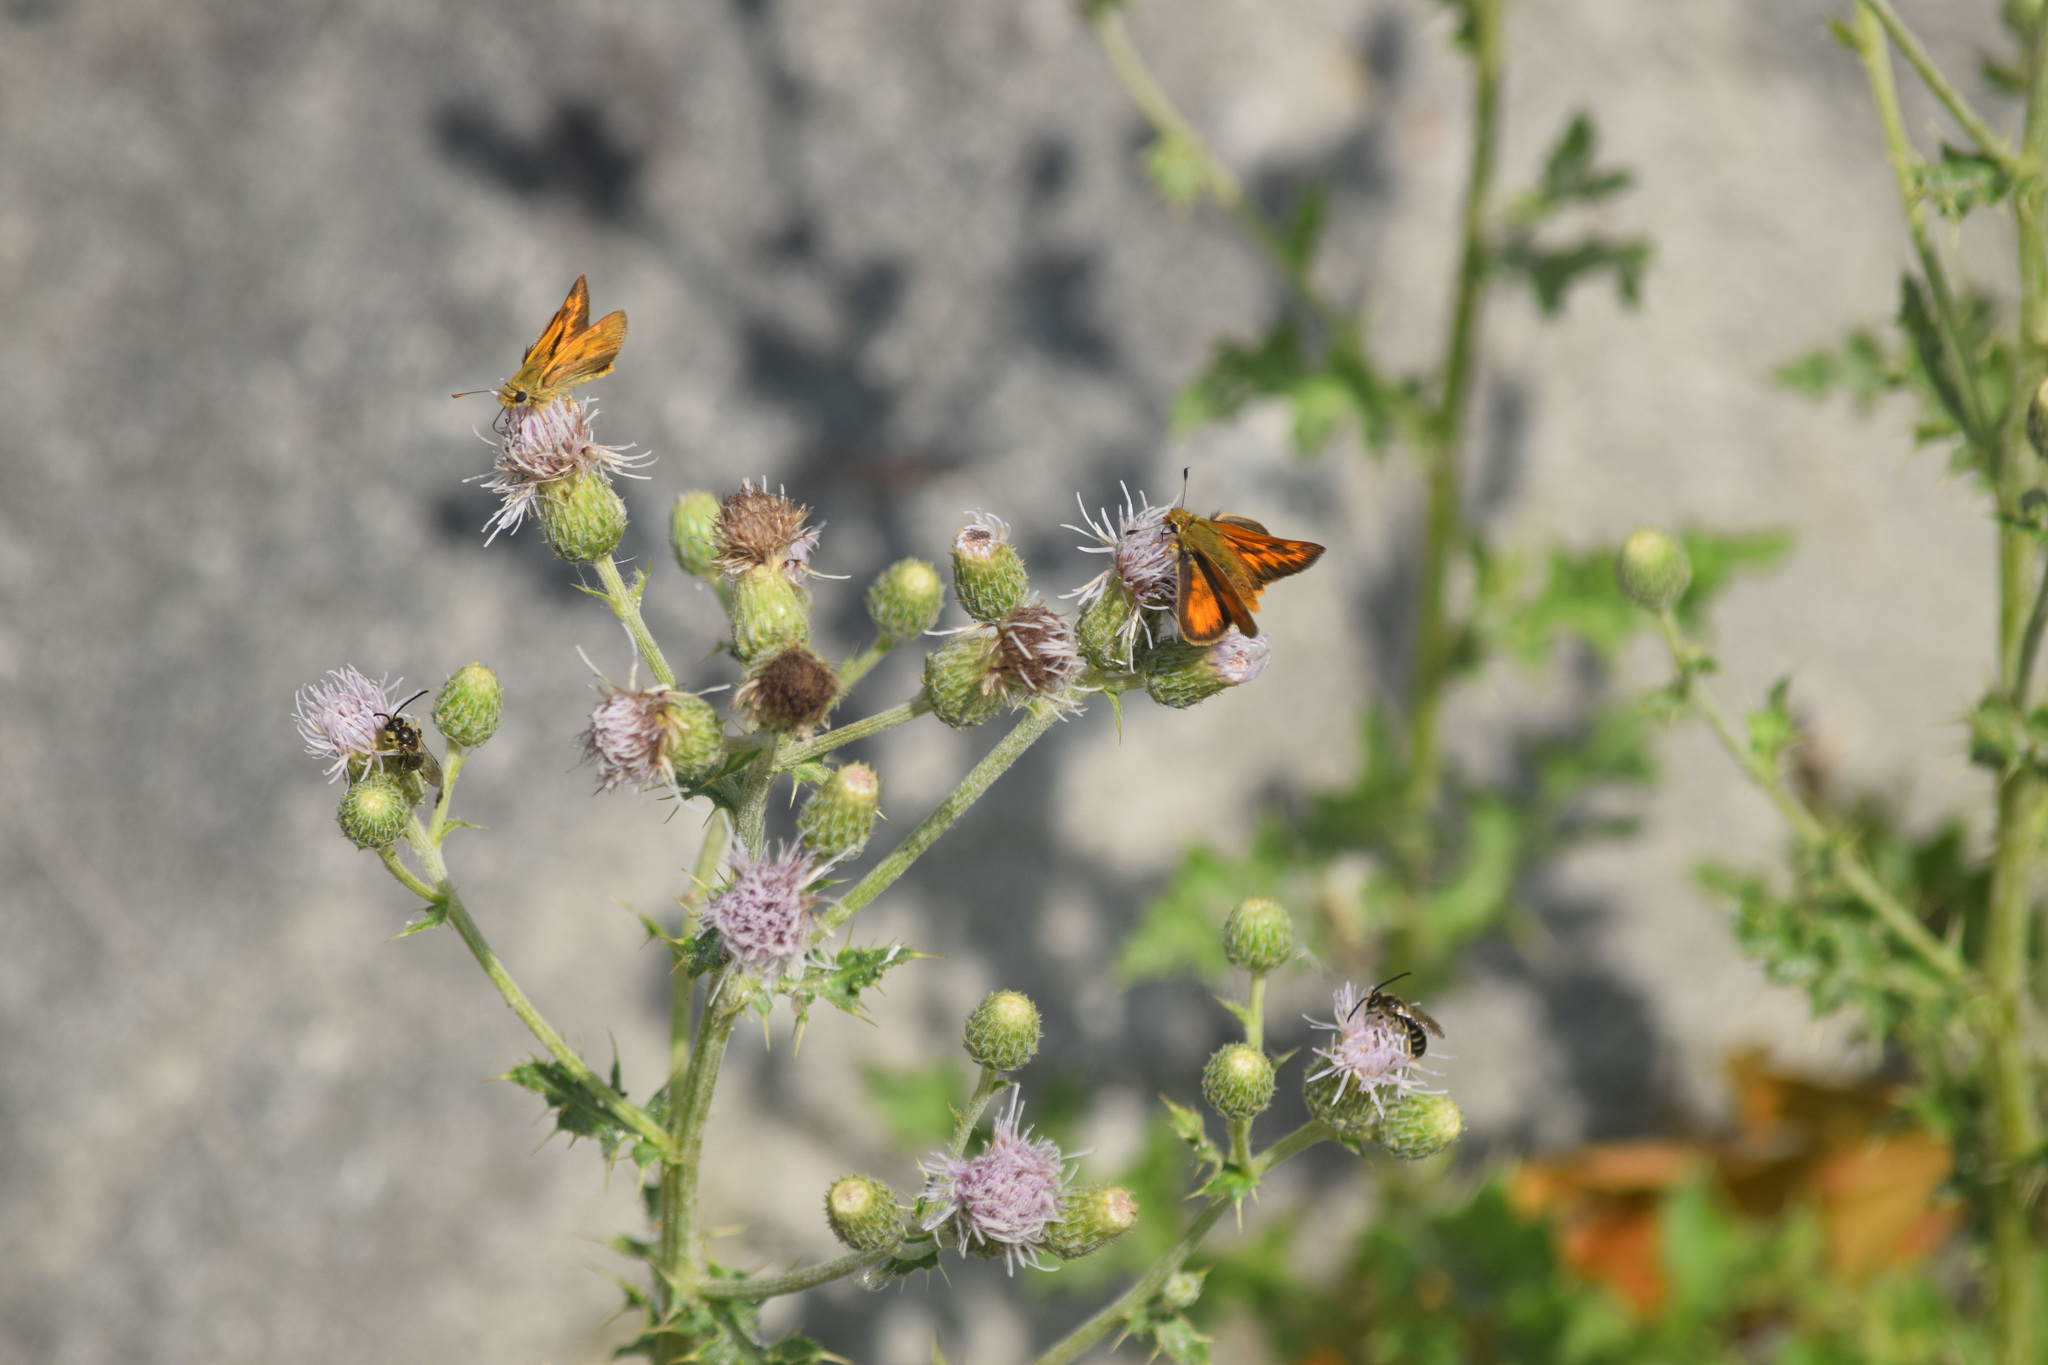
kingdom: Animalia
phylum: Arthropoda
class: Insecta
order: Lepidoptera
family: Hesperiidae
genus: Ochlodes
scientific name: Ochlodes sylvanoides
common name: Woodland skipper
